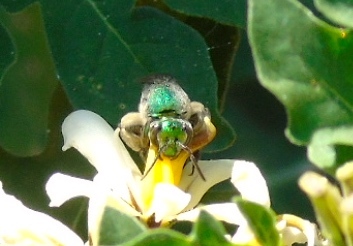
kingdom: Animalia
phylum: Arthropoda
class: Insecta
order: Hymenoptera
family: Halictidae
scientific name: Halictidae
